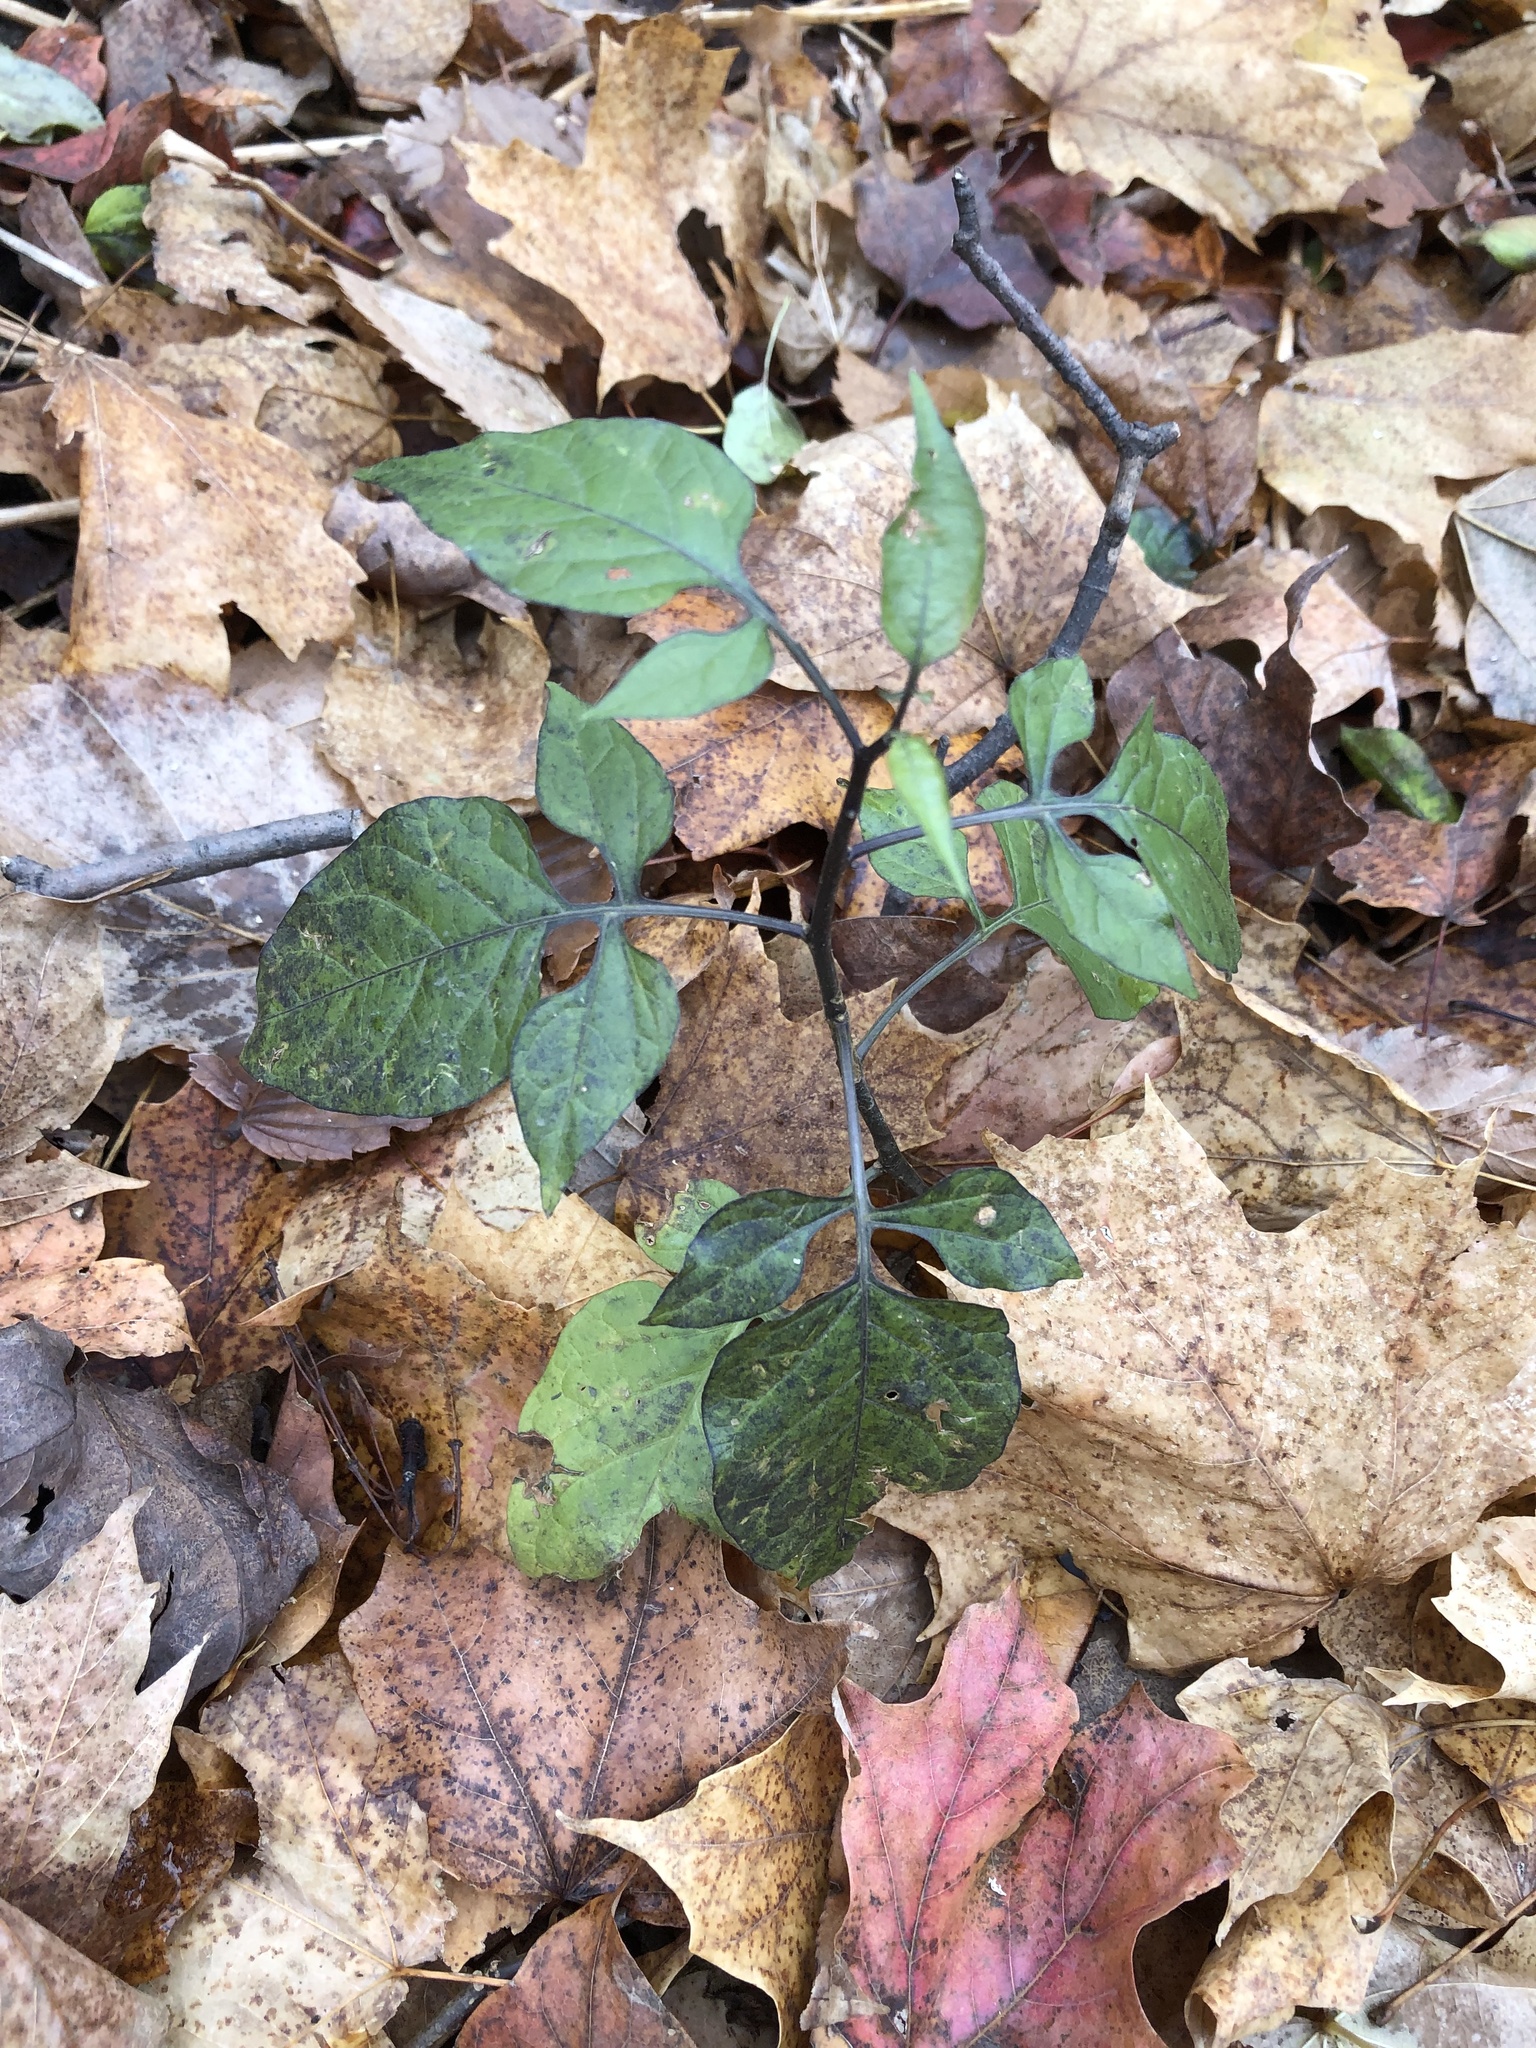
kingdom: Plantae
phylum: Tracheophyta
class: Magnoliopsida
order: Solanales
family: Solanaceae
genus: Solanum
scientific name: Solanum dulcamara
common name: Climbing nightshade
